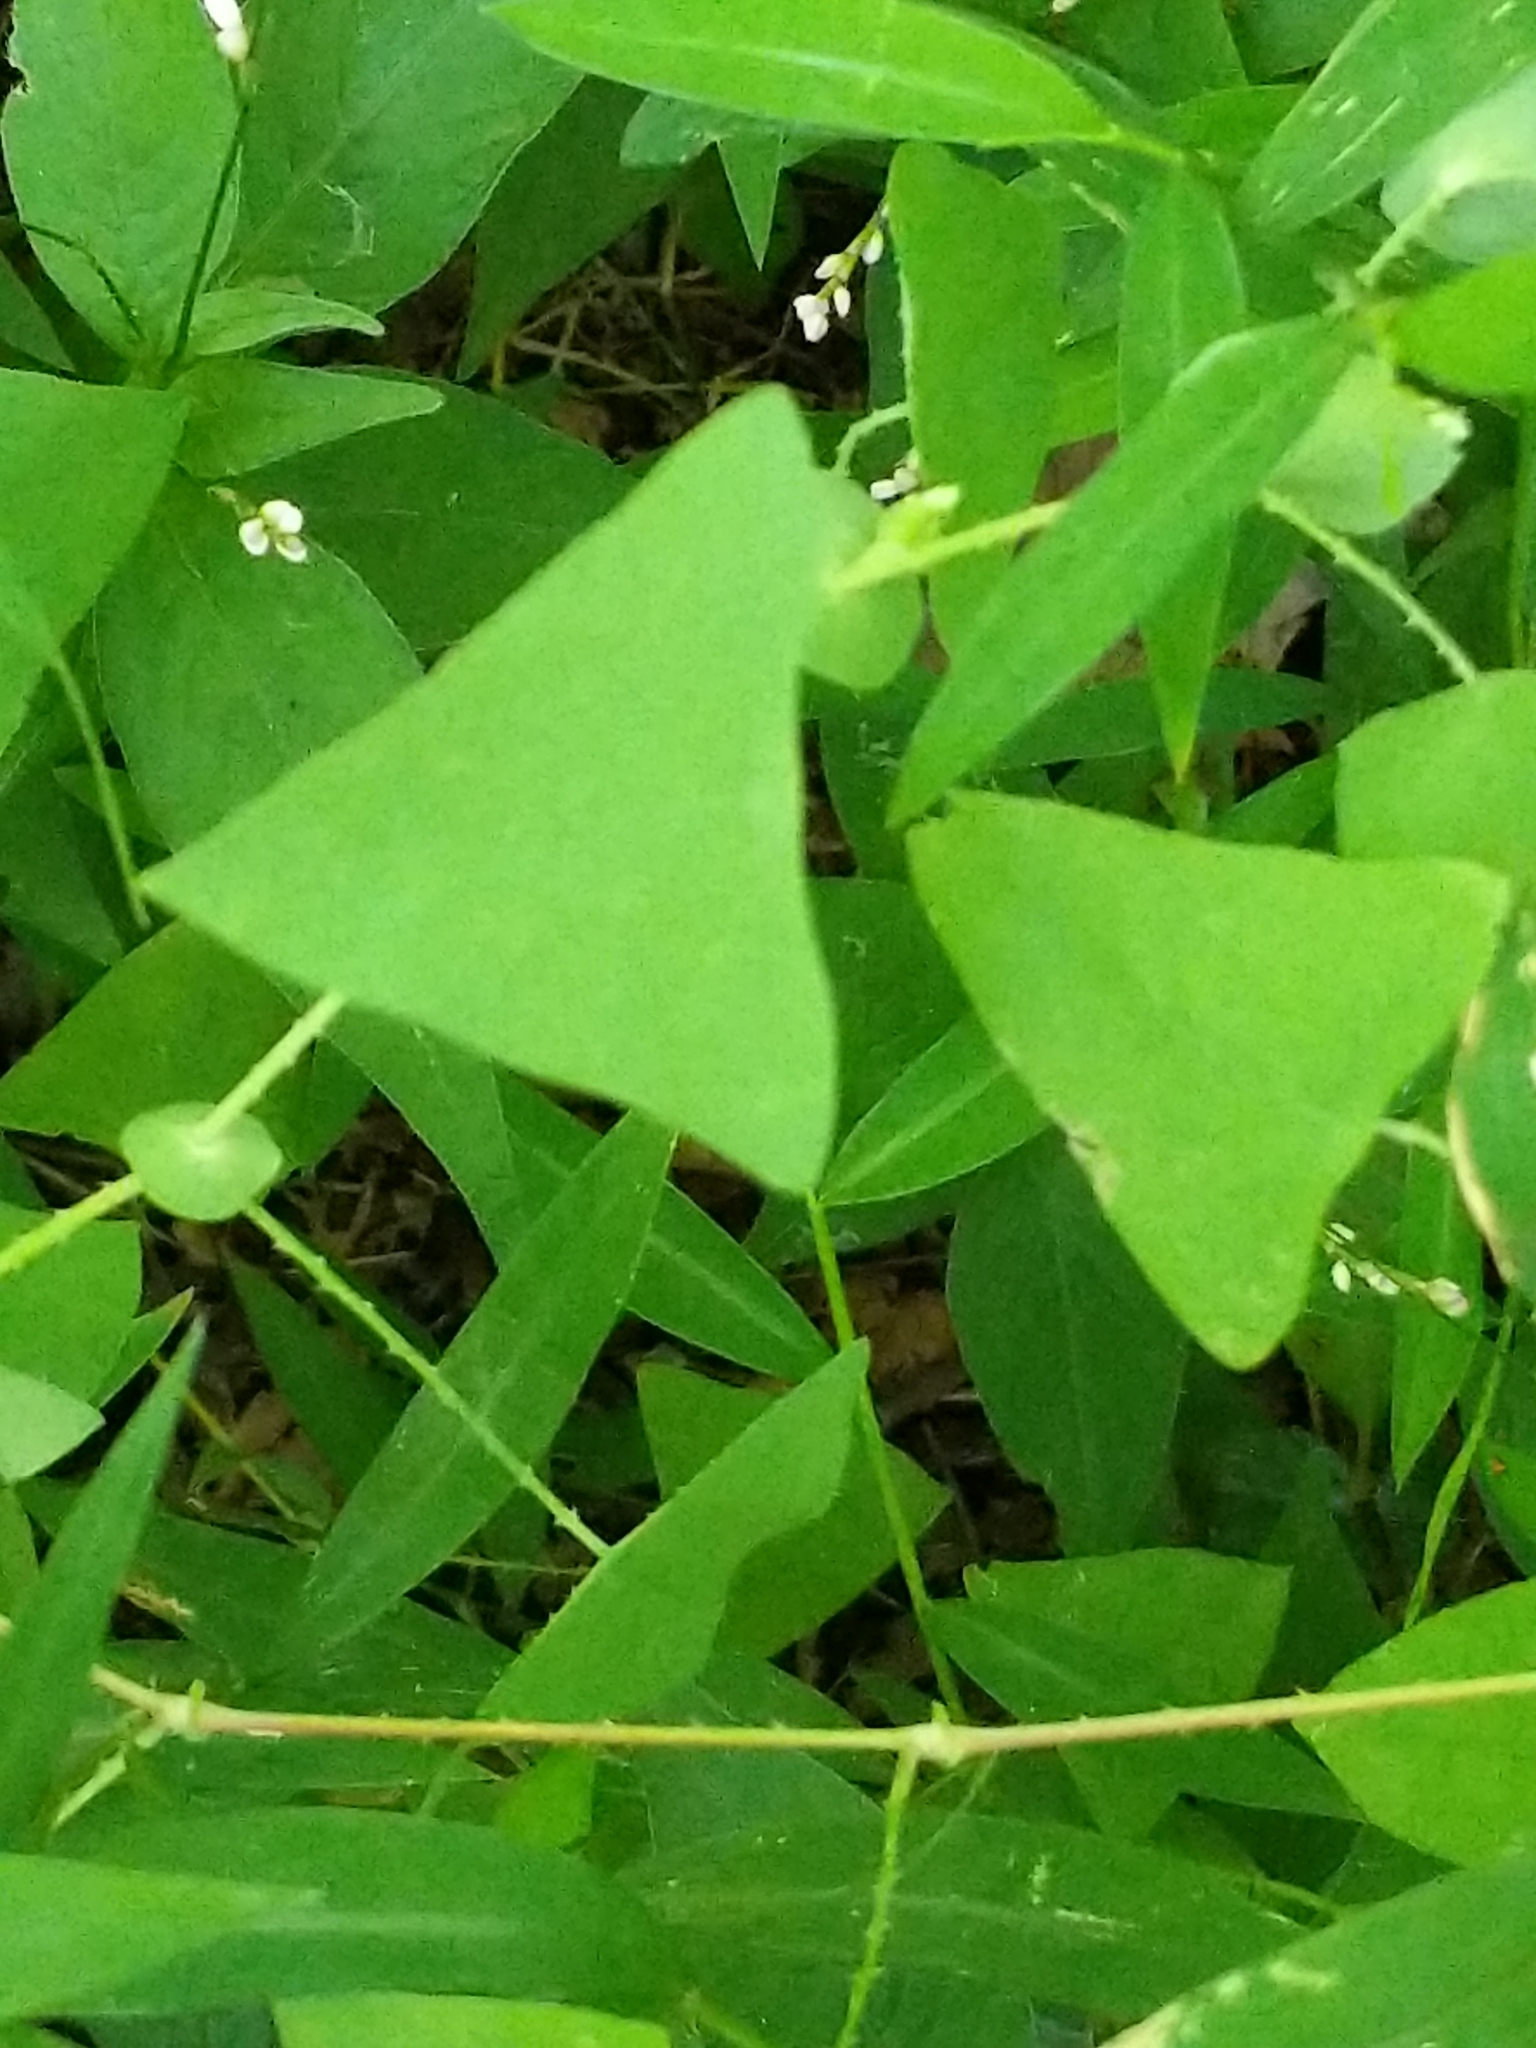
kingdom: Plantae
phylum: Tracheophyta
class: Magnoliopsida
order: Caryophyllales
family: Polygonaceae
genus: Persicaria
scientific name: Persicaria perfoliata
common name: Asiatic tearthumb
